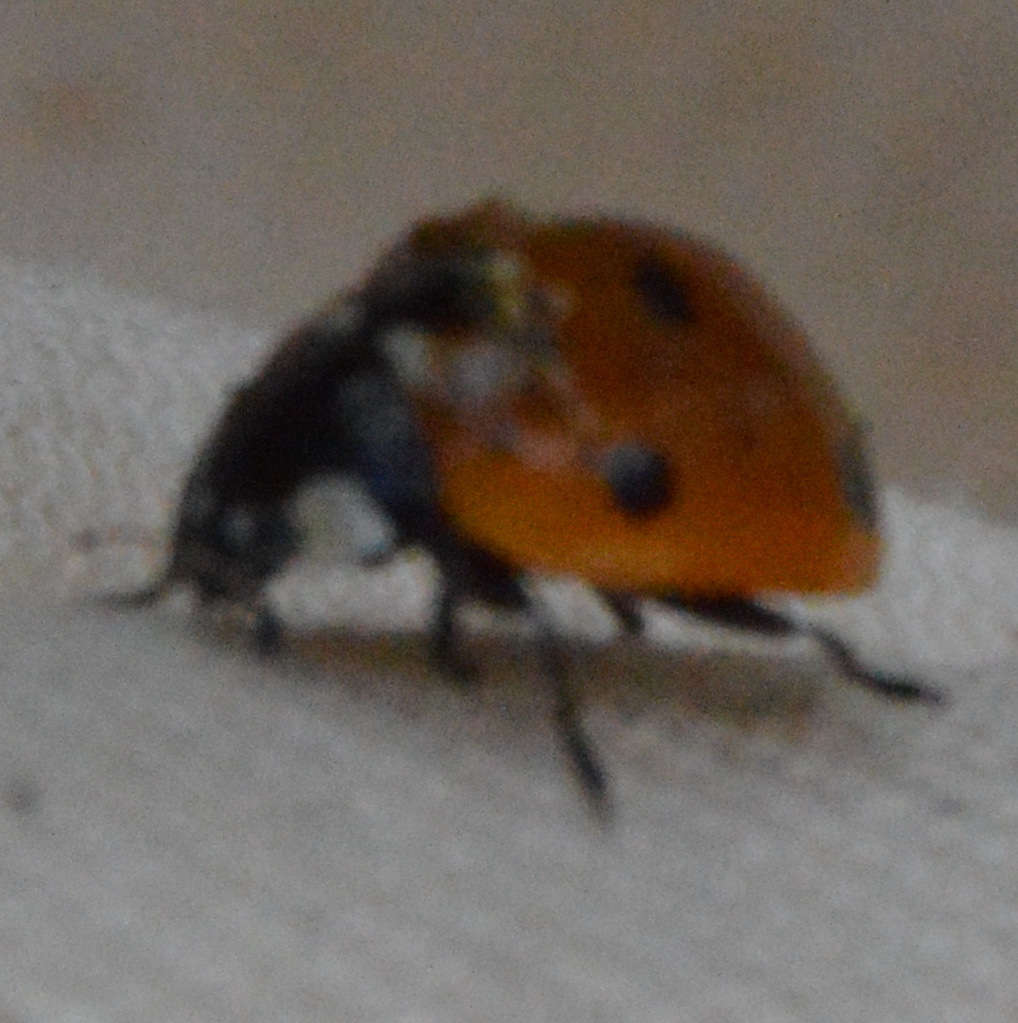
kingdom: Animalia
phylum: Arthropoda
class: Insecta
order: Coleoptera
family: Coccinellidae
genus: Coccinella
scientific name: Coccinella septempunctata
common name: Sevenspotted lady beetle
